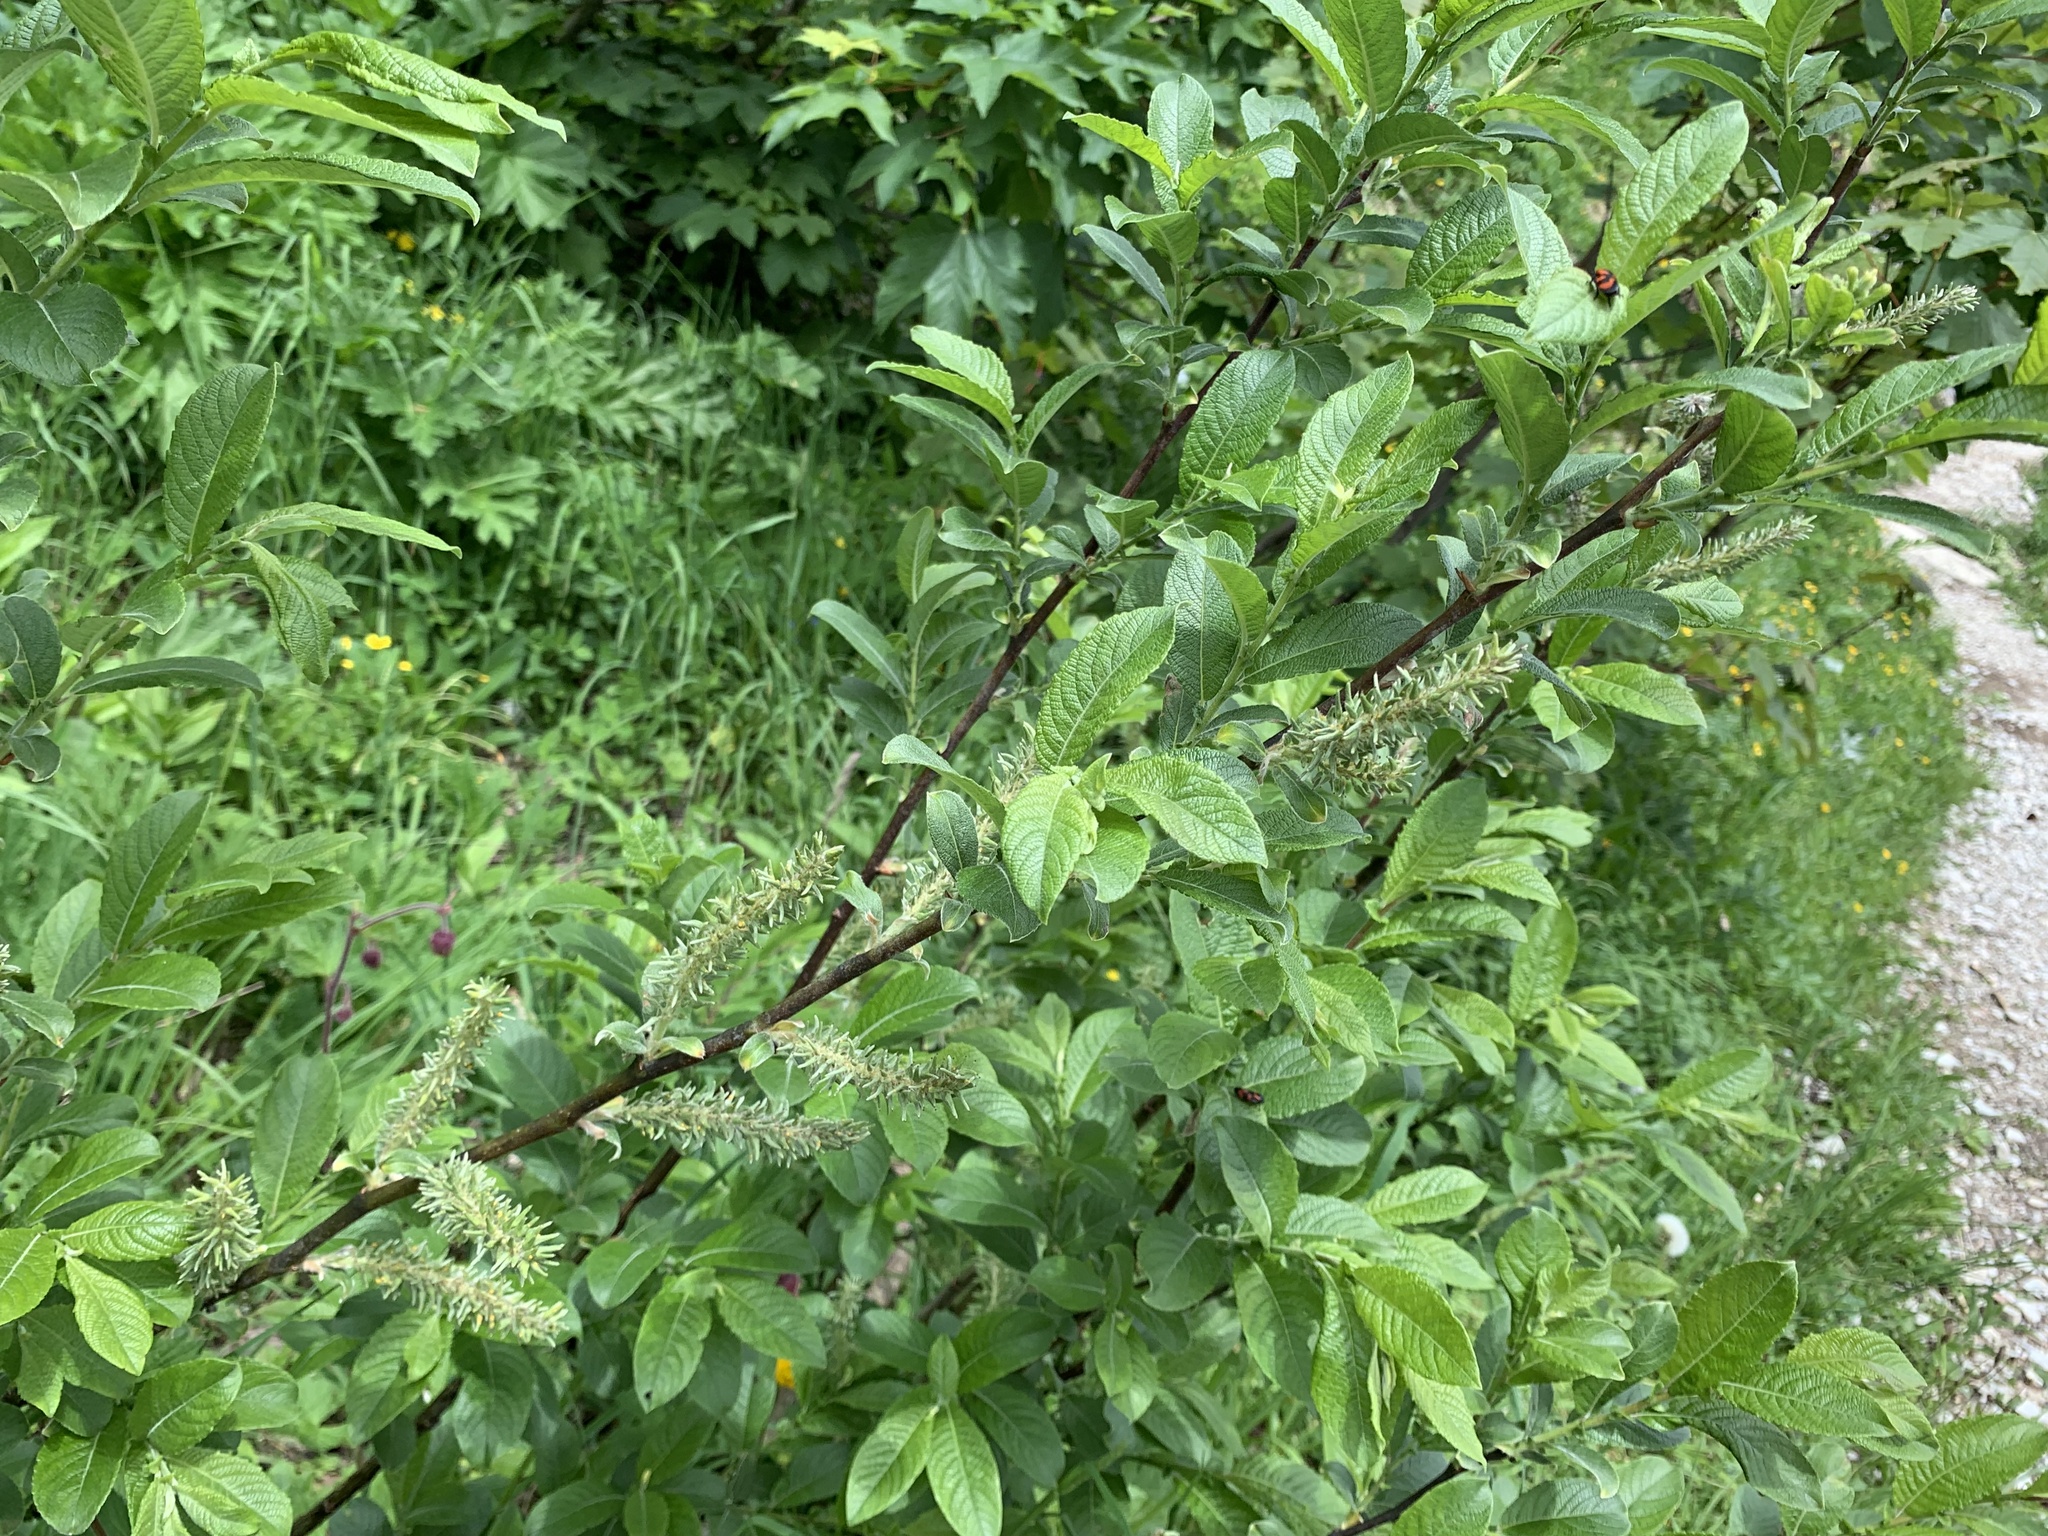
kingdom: Plantae
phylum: Tracheophyta
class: Magnoliopsida
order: Malpighiales
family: Salicaceae
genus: Salix
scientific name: Salix appendiculata
